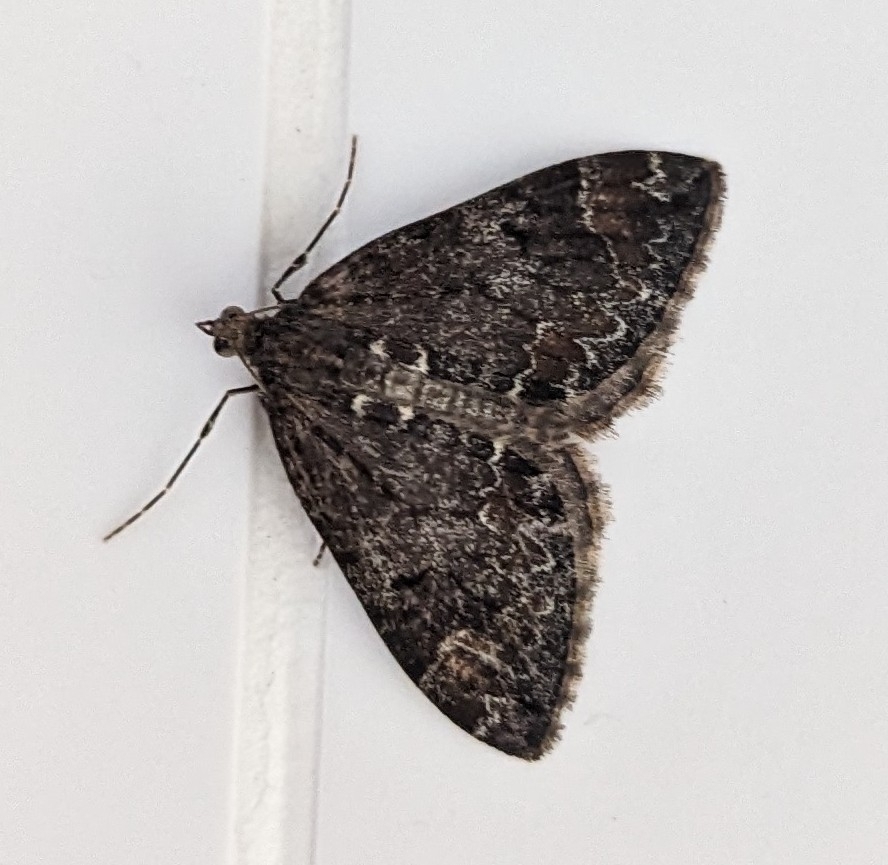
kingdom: Animalia
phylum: Arthropoda
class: Insecta
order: Lepidoptera
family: Geometridae
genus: Dysstroma
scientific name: Dysstroma
